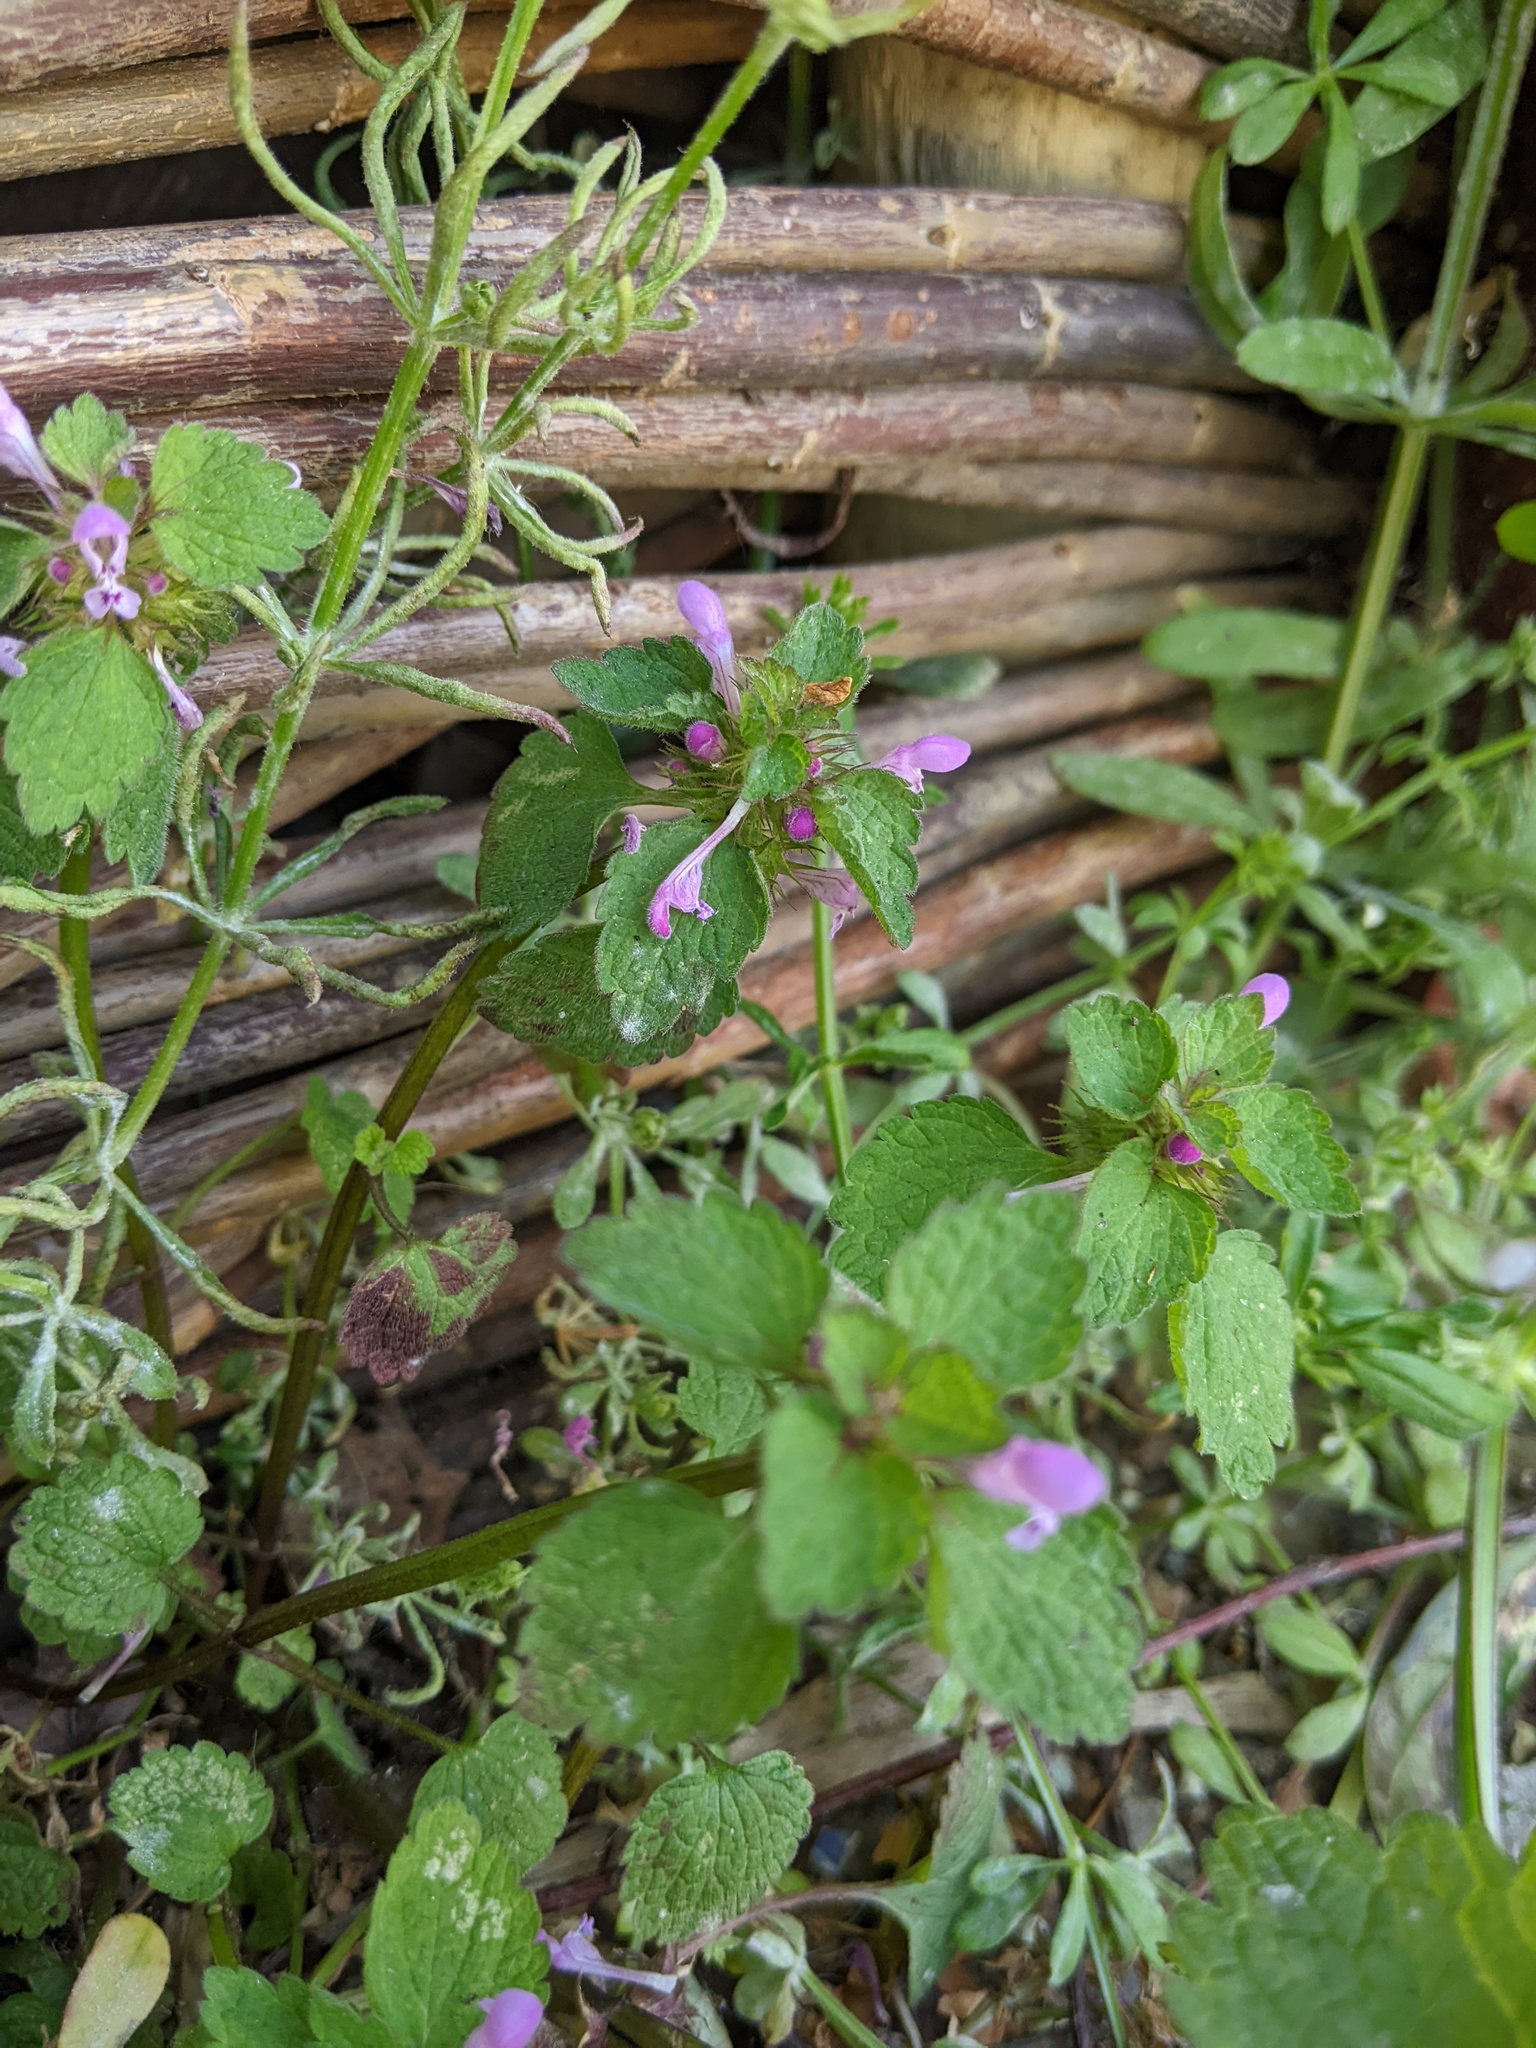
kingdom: Plantae
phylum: Tracheophyta
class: Magnoliopsida
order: Lamiales
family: Lamiaceae
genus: Lamium
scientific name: Lamium purpureum
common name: Red dead-nettle
